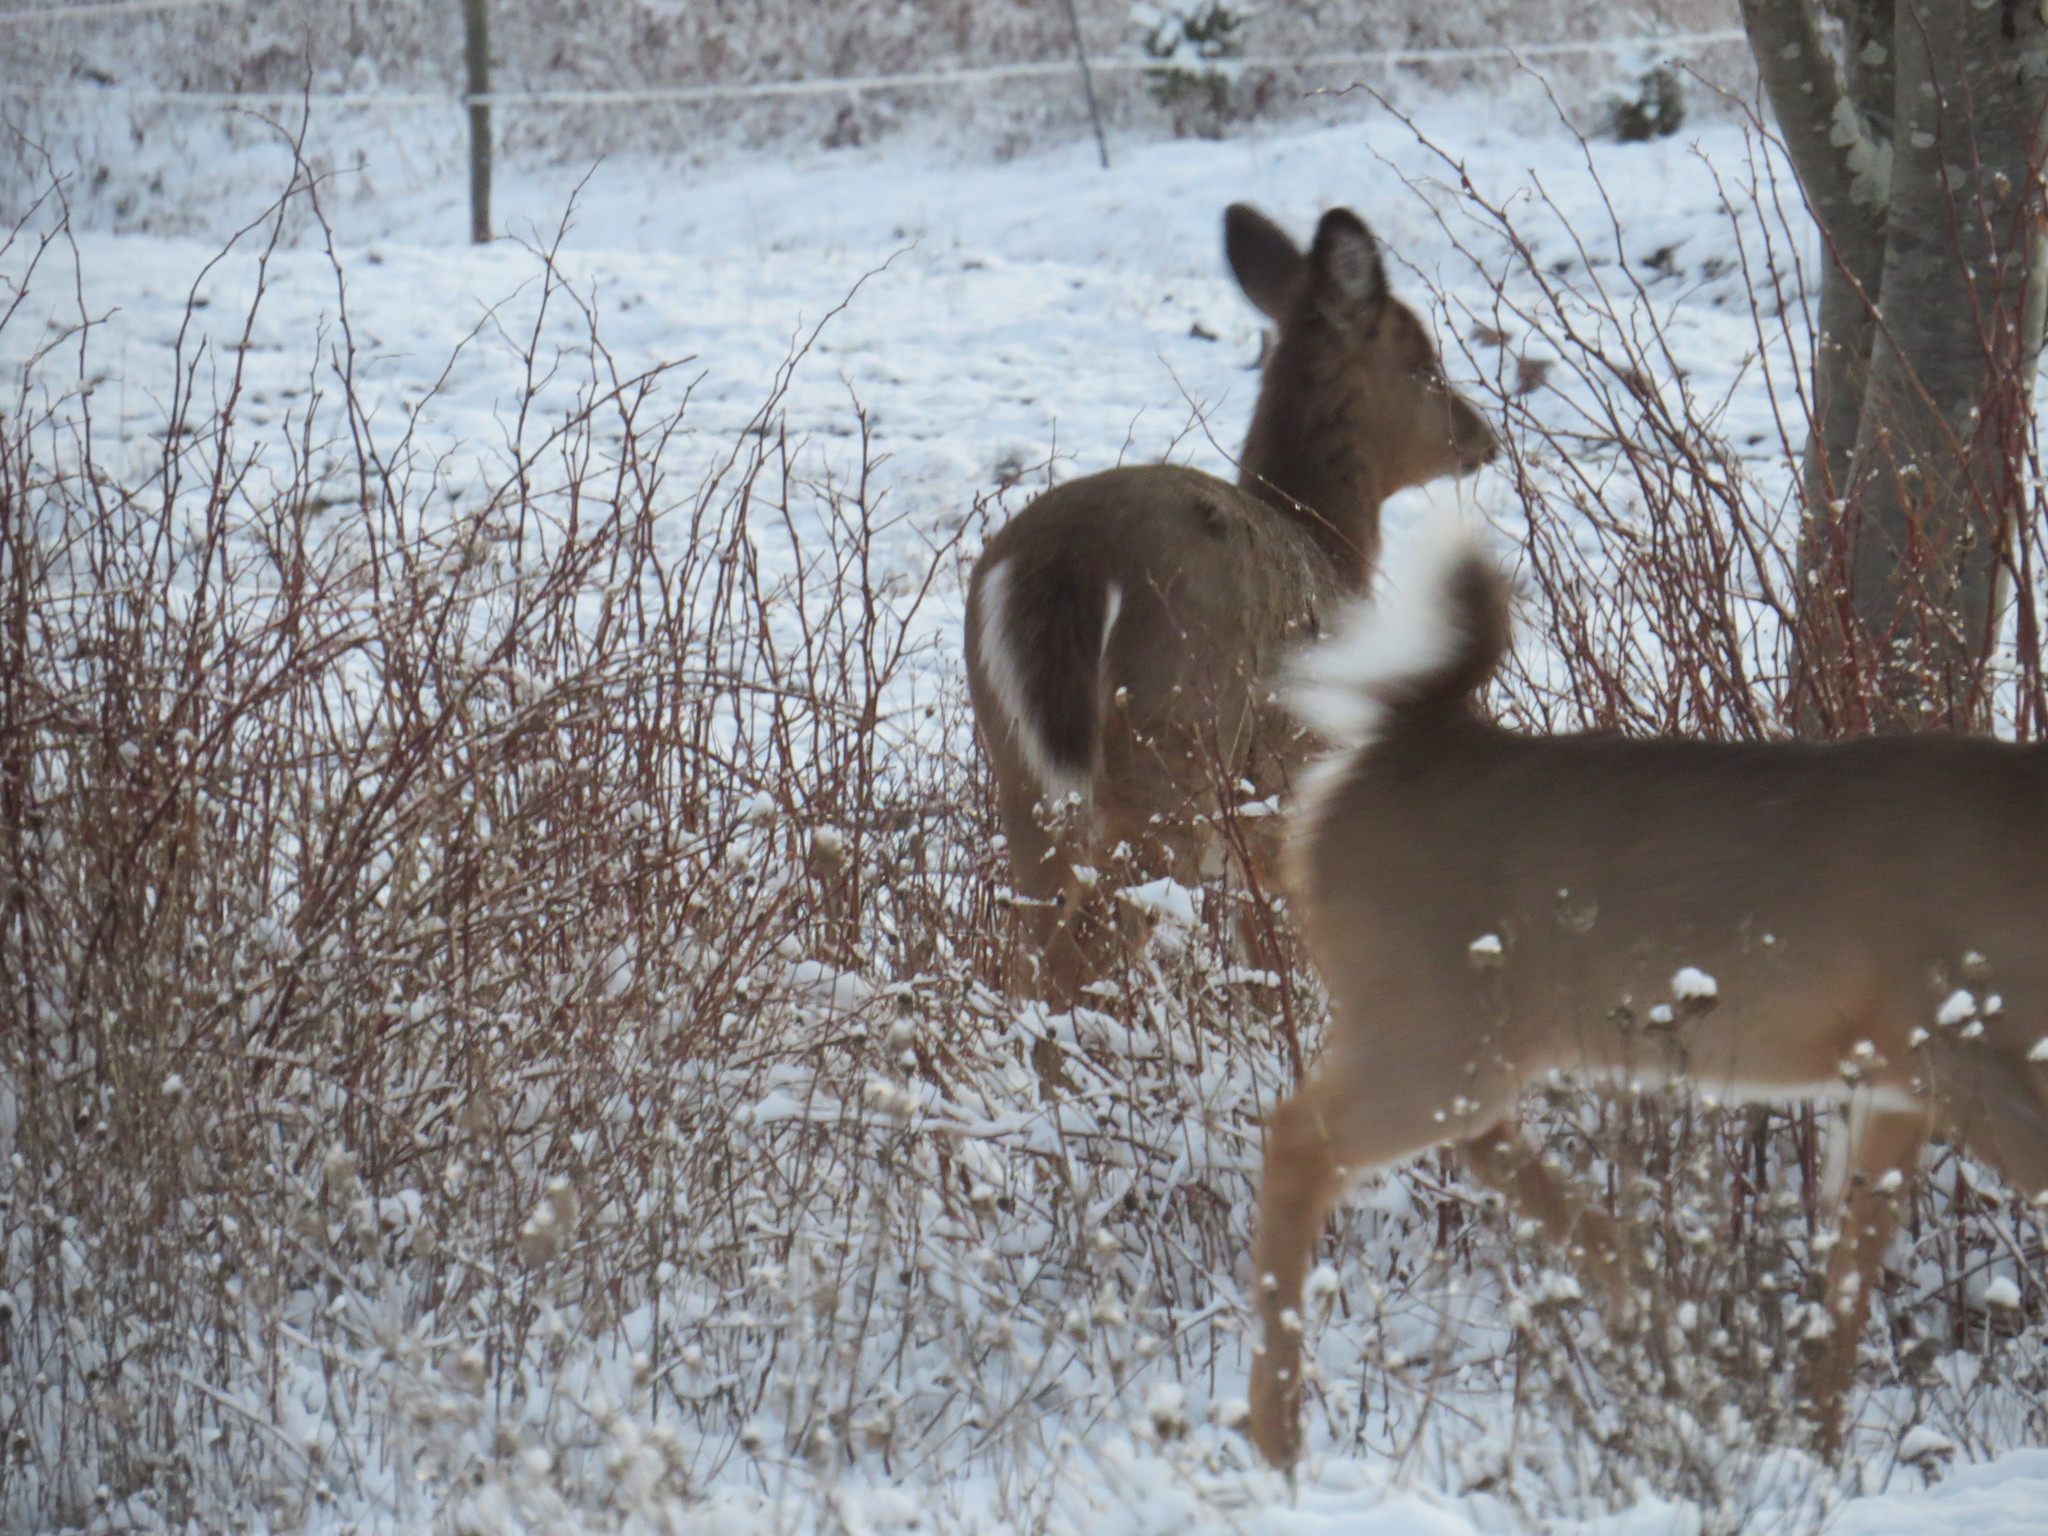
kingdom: Animalia
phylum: Chordata
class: Mammalia
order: Artiodactyla
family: Cervidae
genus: Odocoileus
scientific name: Odocoileus virginianus
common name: White-tailed deer
